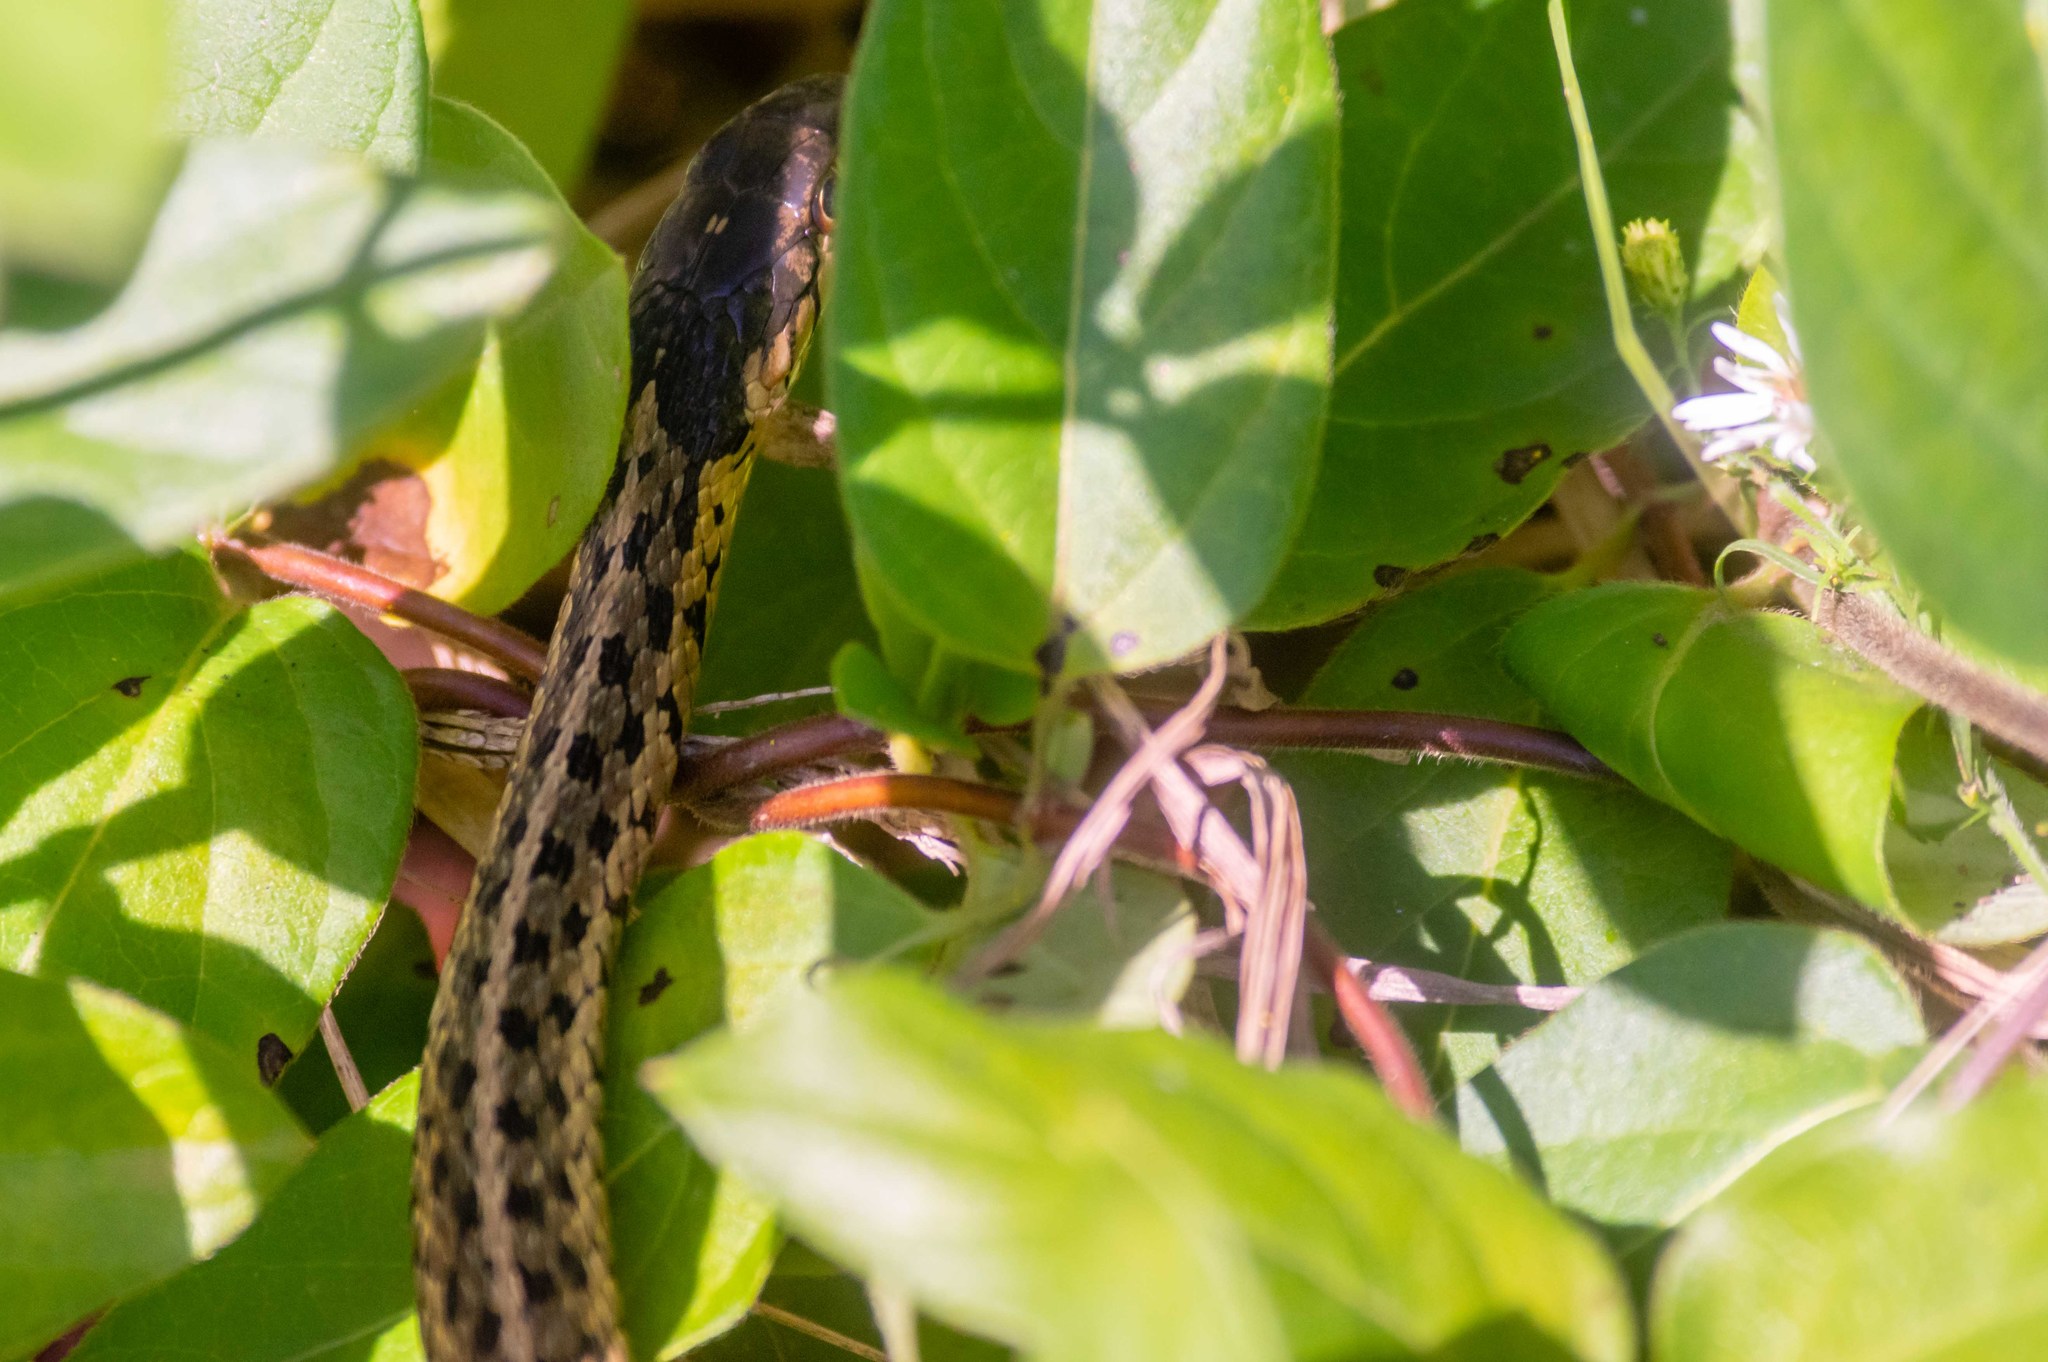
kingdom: Animalia
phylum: Chordata
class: Squamata
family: Colubridae
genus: Thamnophis
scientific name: Thamnophis sirtalis
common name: Common garter snake
